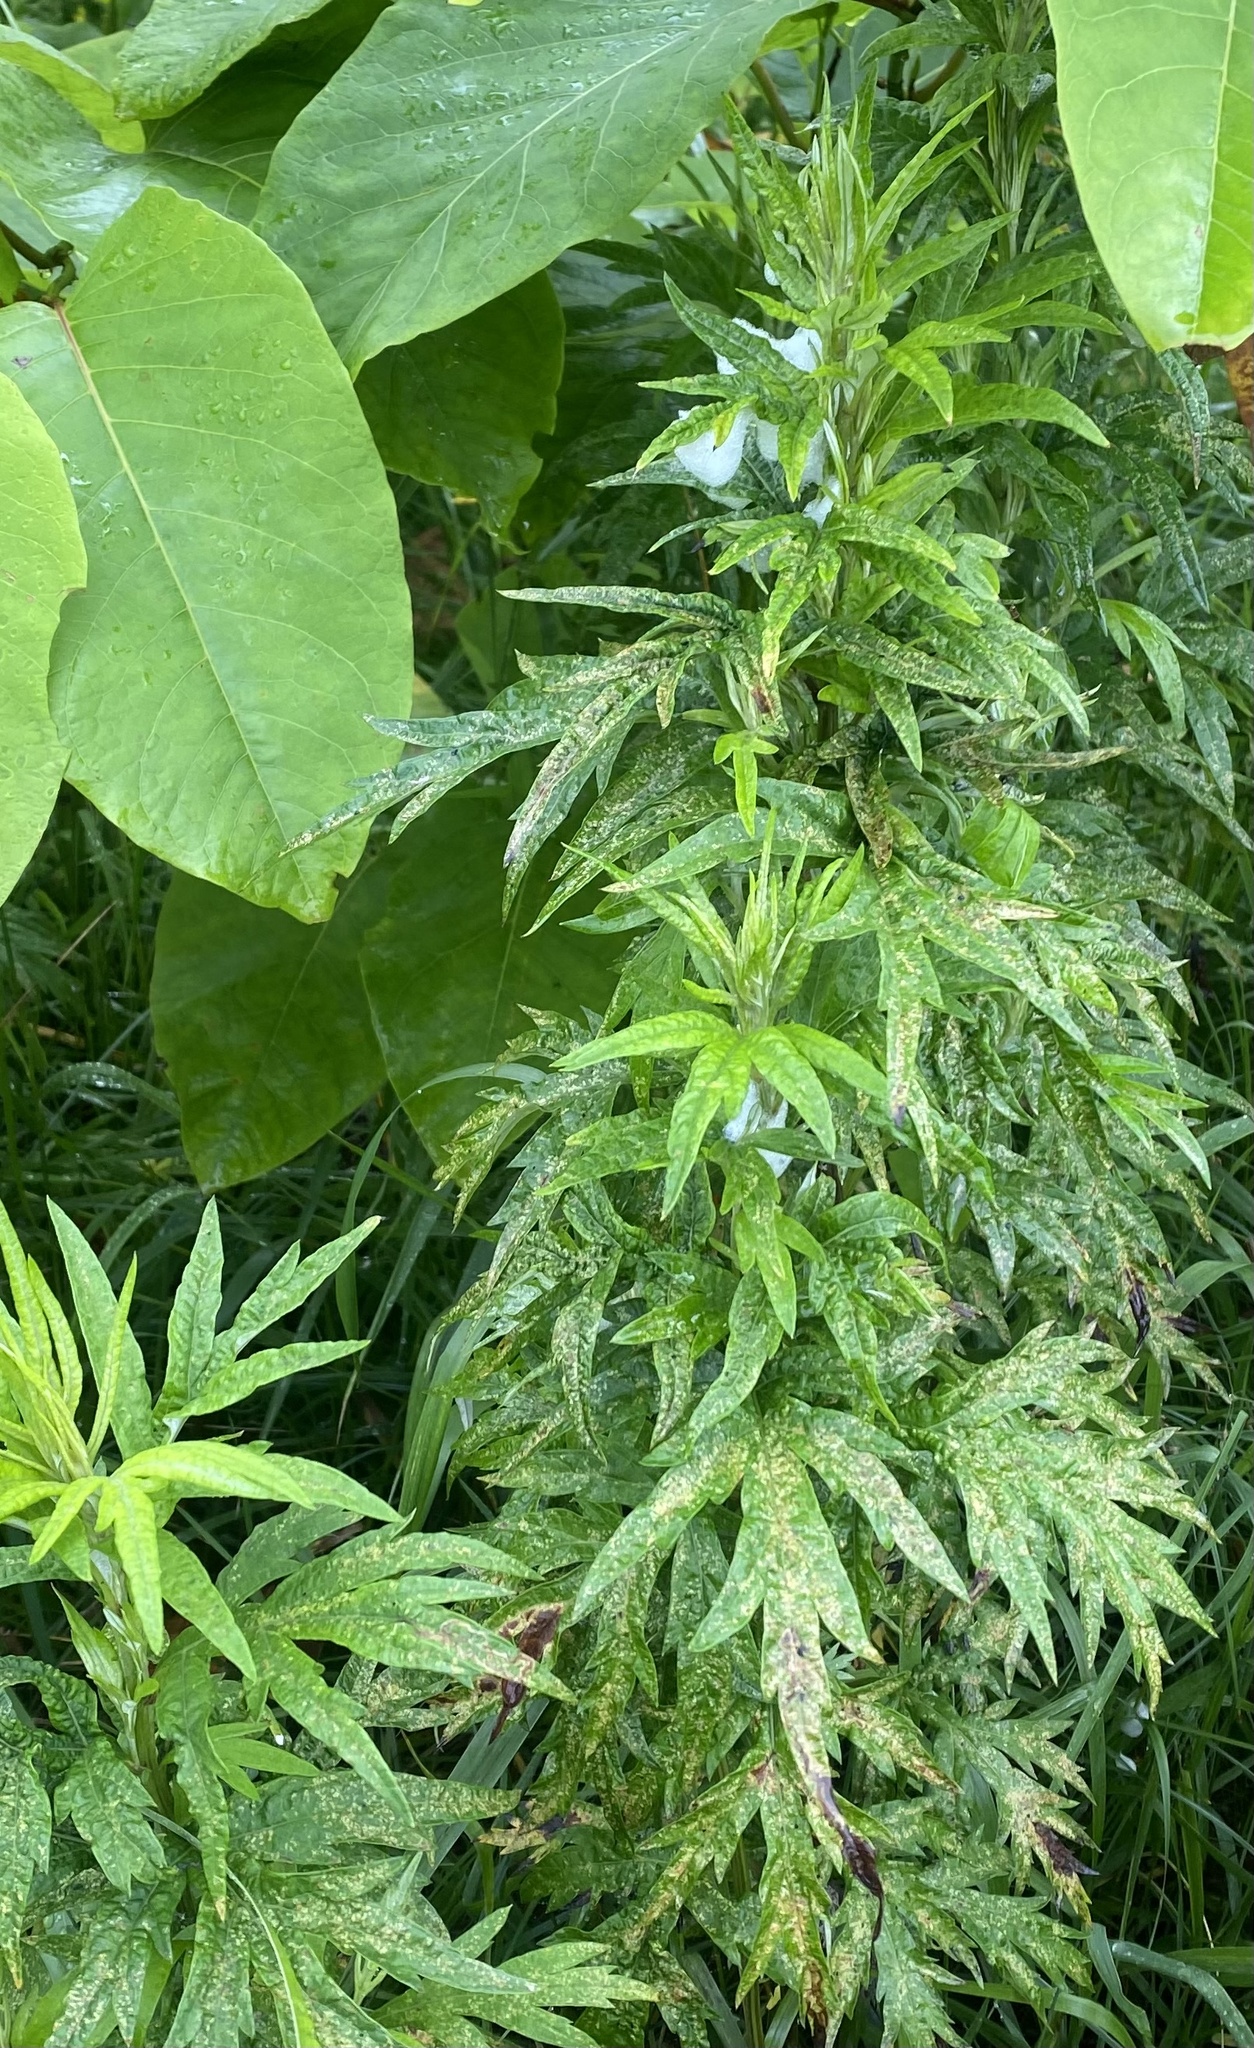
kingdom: Plantae
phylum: Tracheophyta
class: Magnoliopsida
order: Asterales
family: Asteraceae
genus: Jacobaea
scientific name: Jacobaea cannabifolia
